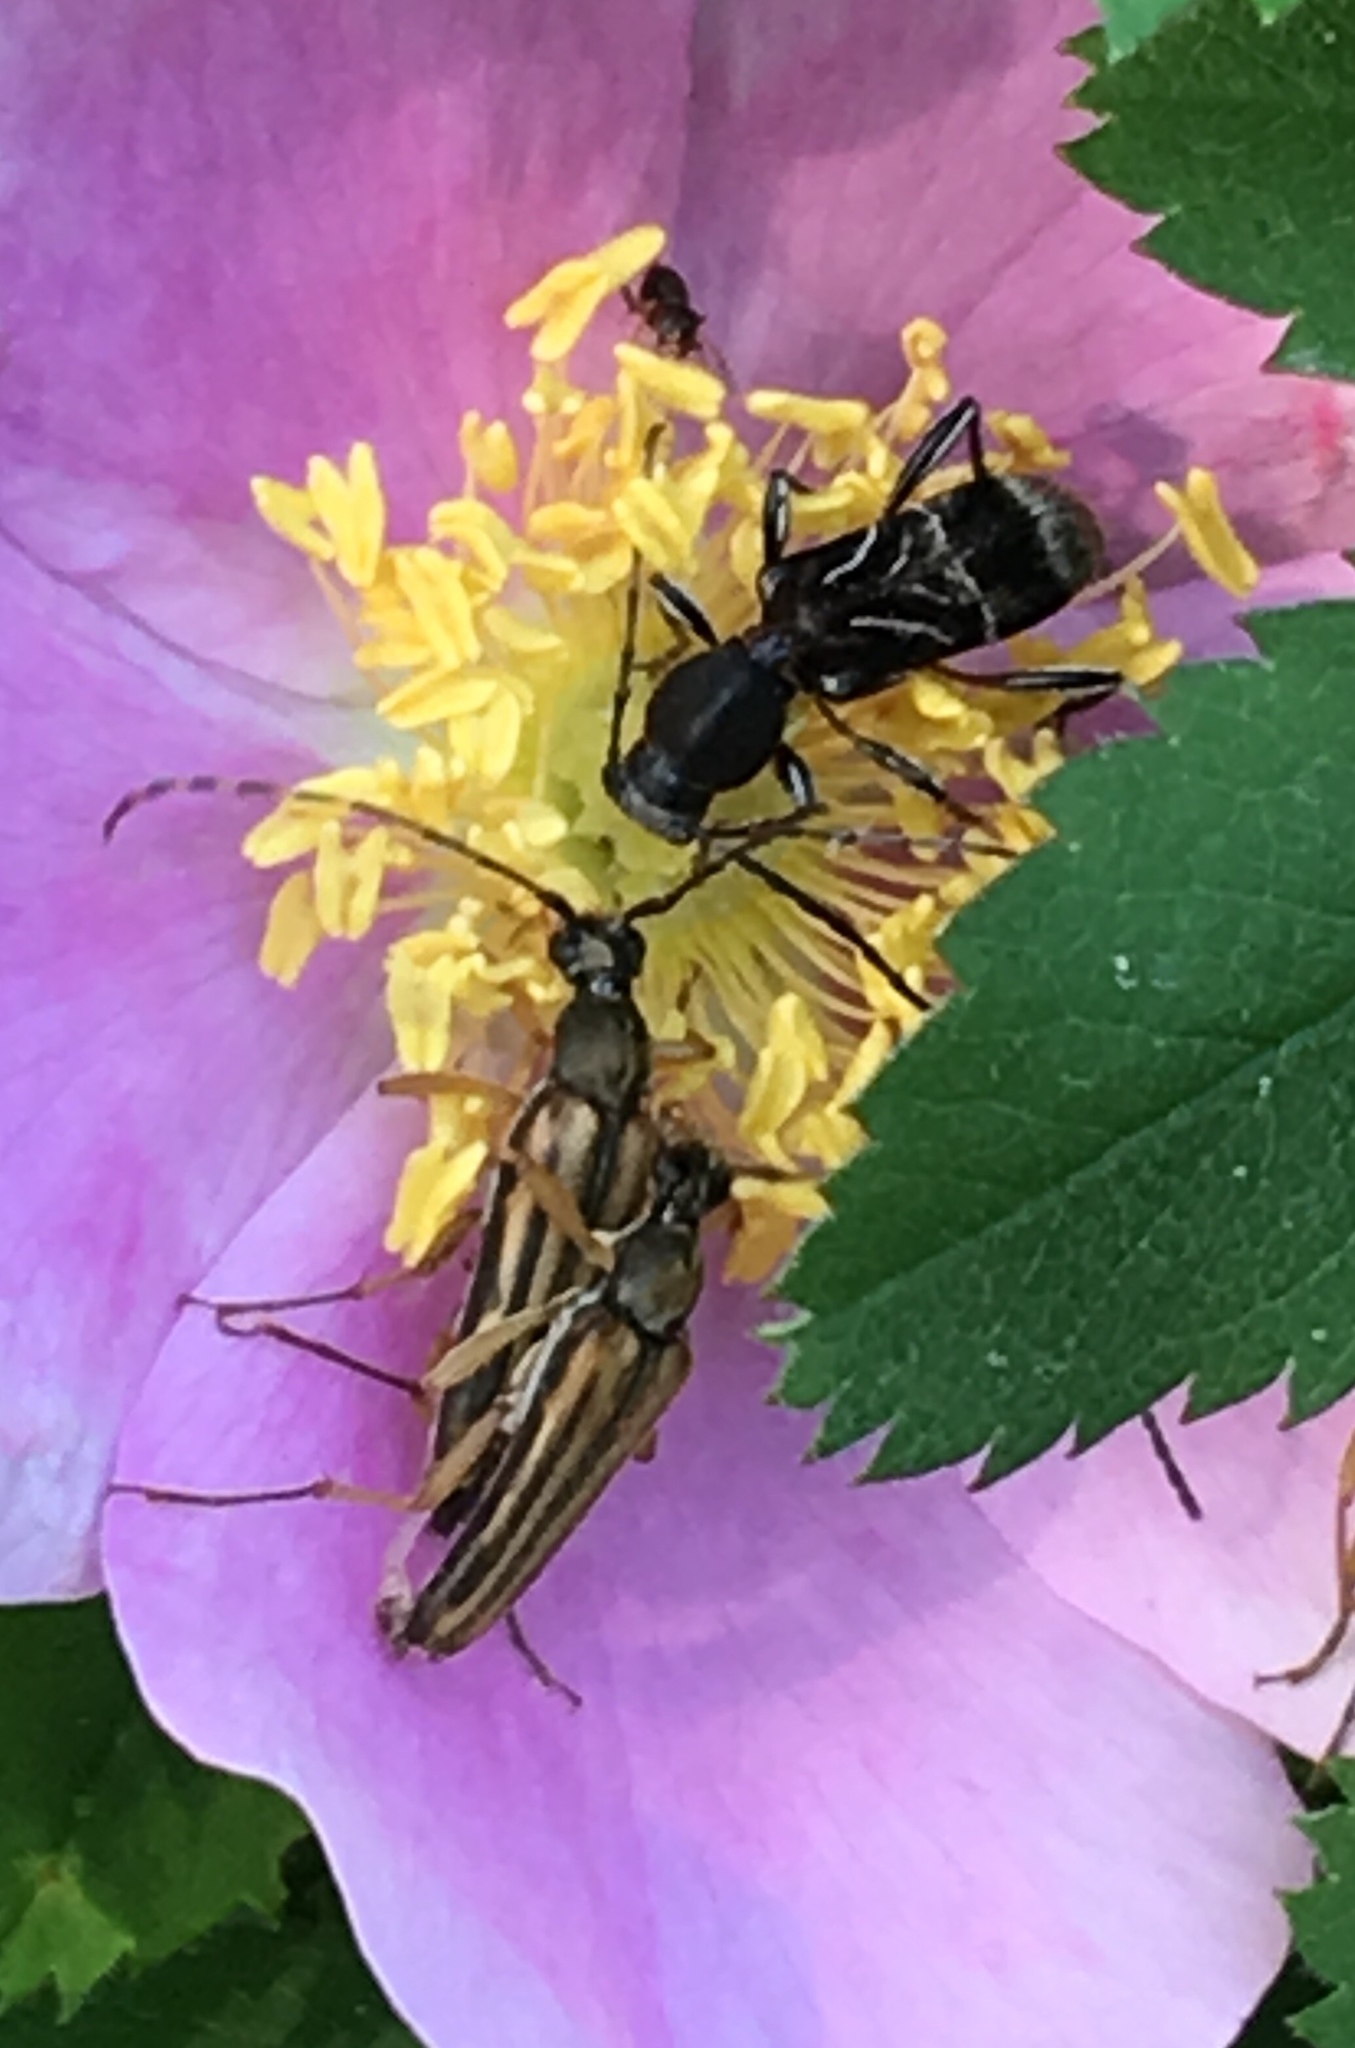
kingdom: Animalia
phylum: Arthropoda
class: Insecta
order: Coleoptera
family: Cerambycidae
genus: Cyrtophorus
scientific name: Cyrtophorus verrucosus
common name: Ant-like longhorn beetle
